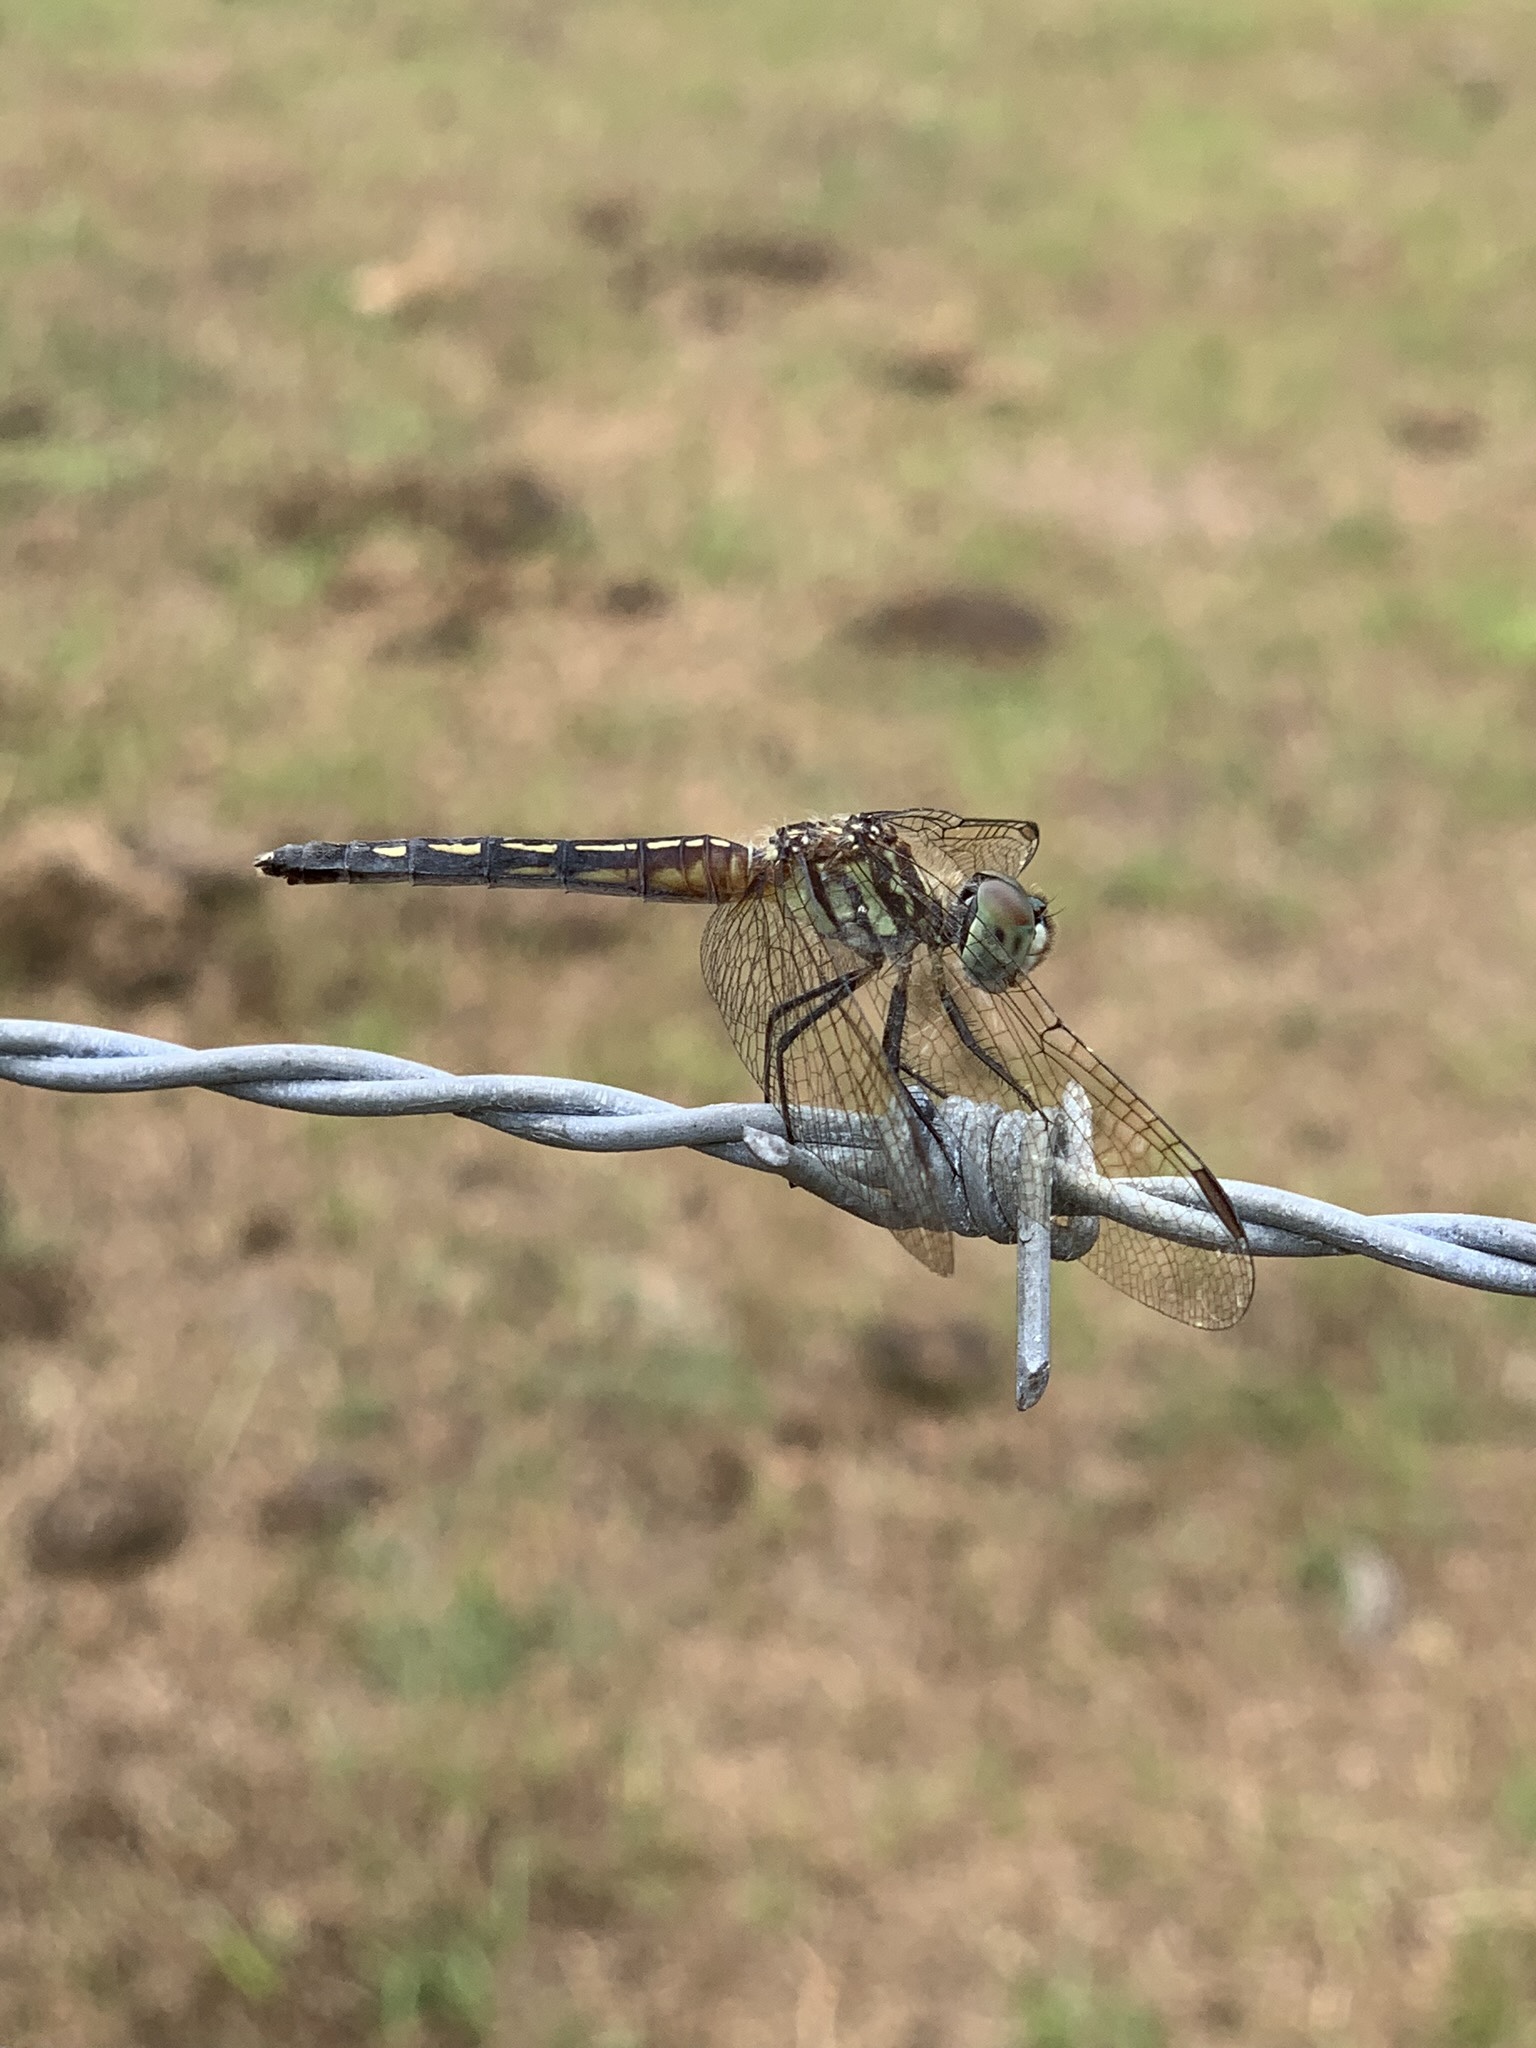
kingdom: Animalia
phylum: Arthropoda
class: Insecta
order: Odonata
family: Libellulidae
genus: Pachydiplax
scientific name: Pachydiplax longipennis
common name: Blue dasher
